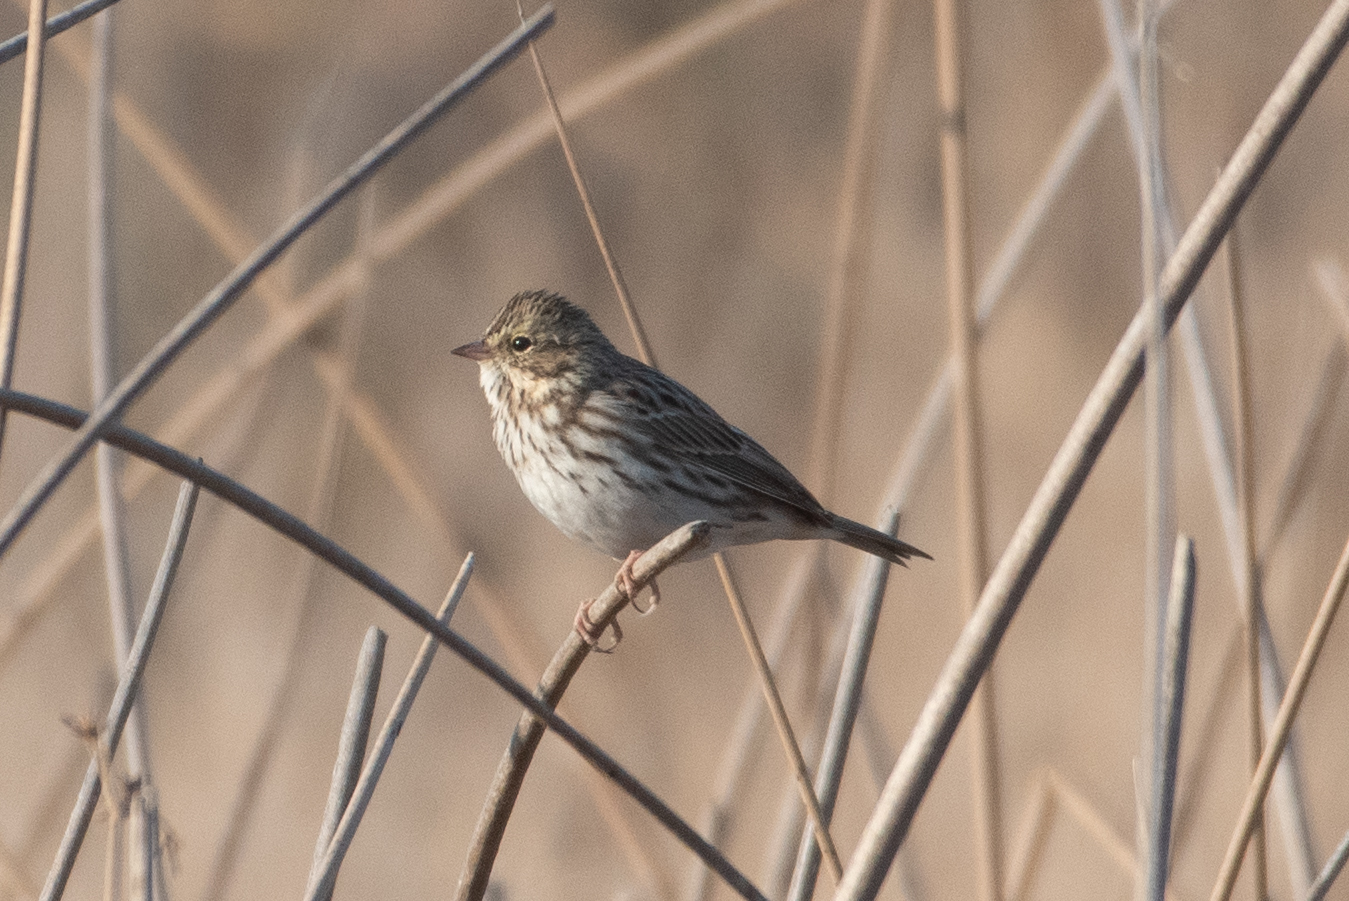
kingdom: Animalia
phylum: Chordata
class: Aves
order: Passeriformes
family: Passerellidae
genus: Passerculus
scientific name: Passerculus sandwichensis
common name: Savannah sparrow
